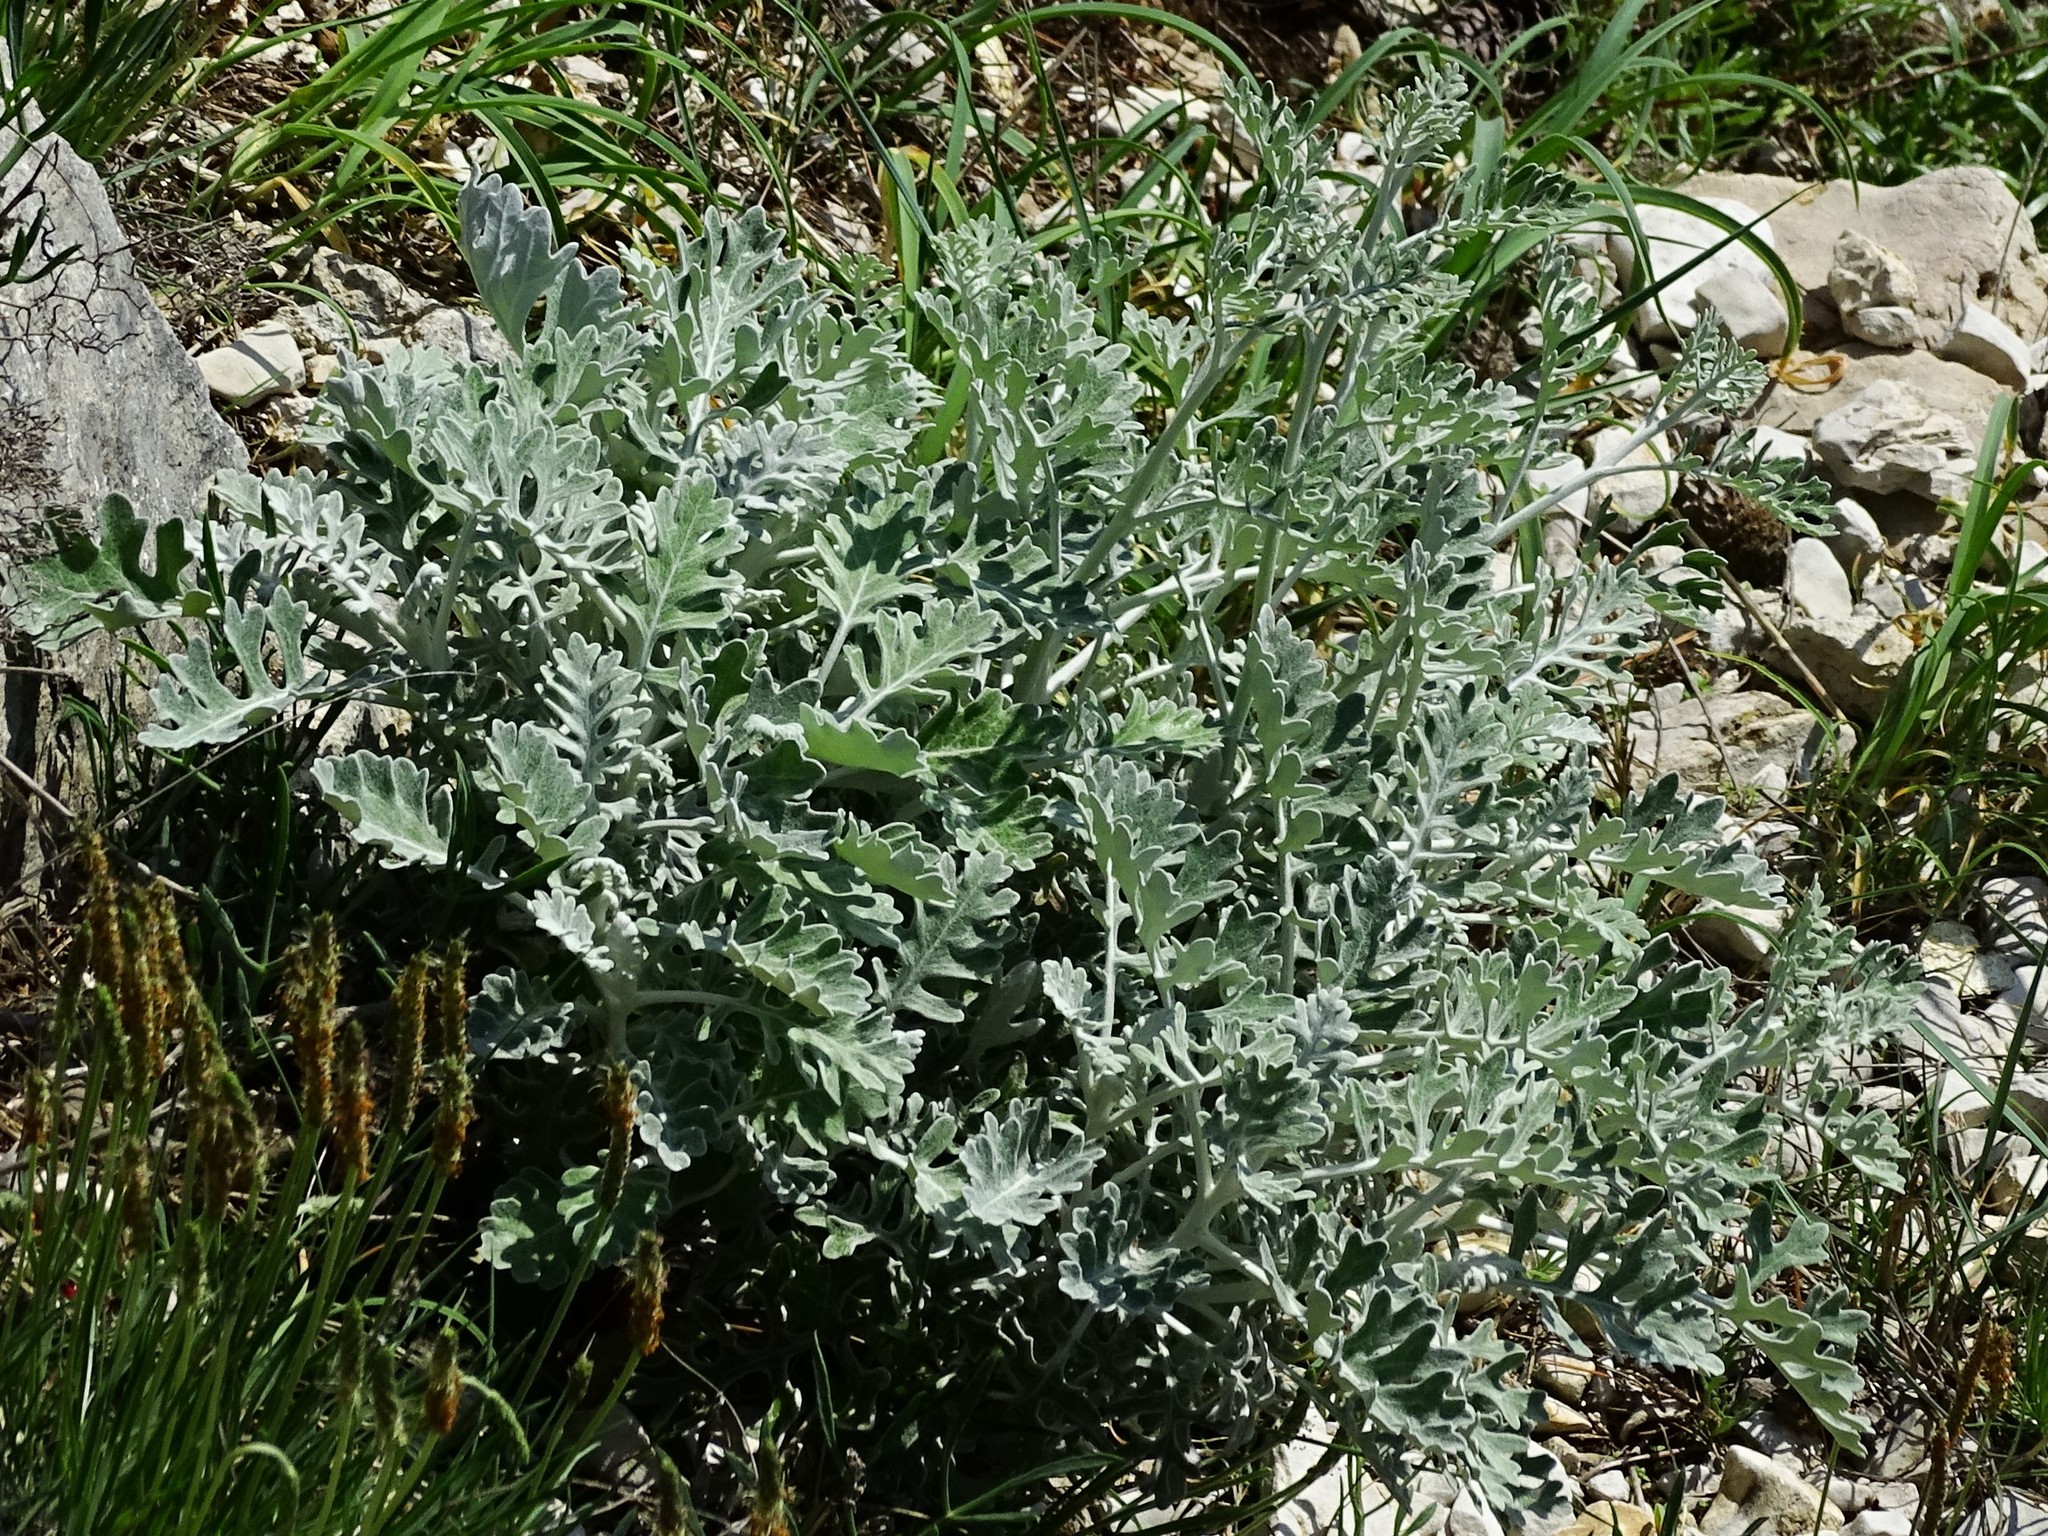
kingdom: Plantae
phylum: Tracheophyta
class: Magnoliopsida
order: Asterales
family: Asteraceae
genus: Jacobaea
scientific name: Jacobaea maritima
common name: Silver ragwort
